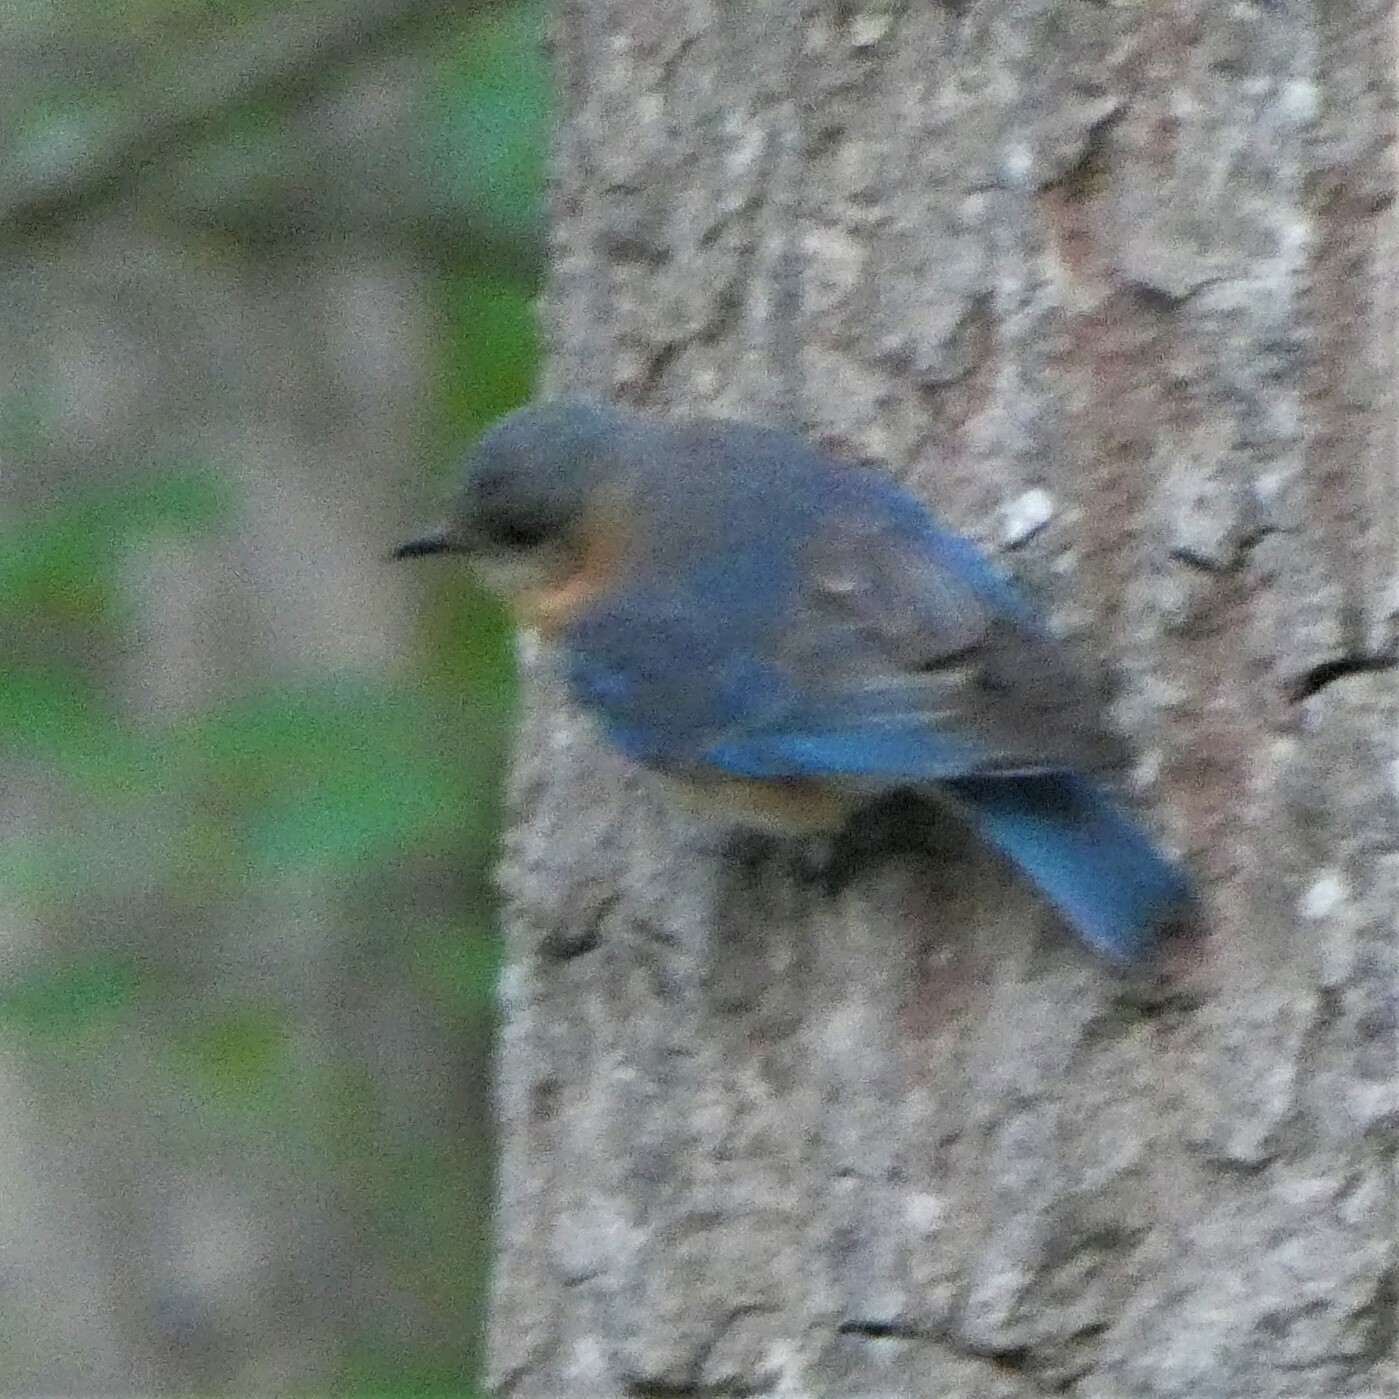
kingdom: Animalia
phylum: Chordata
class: Aves
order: Passeriformes
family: Turdidae
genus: Sialia
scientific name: Sialia sialis
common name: Eastern bluebird
